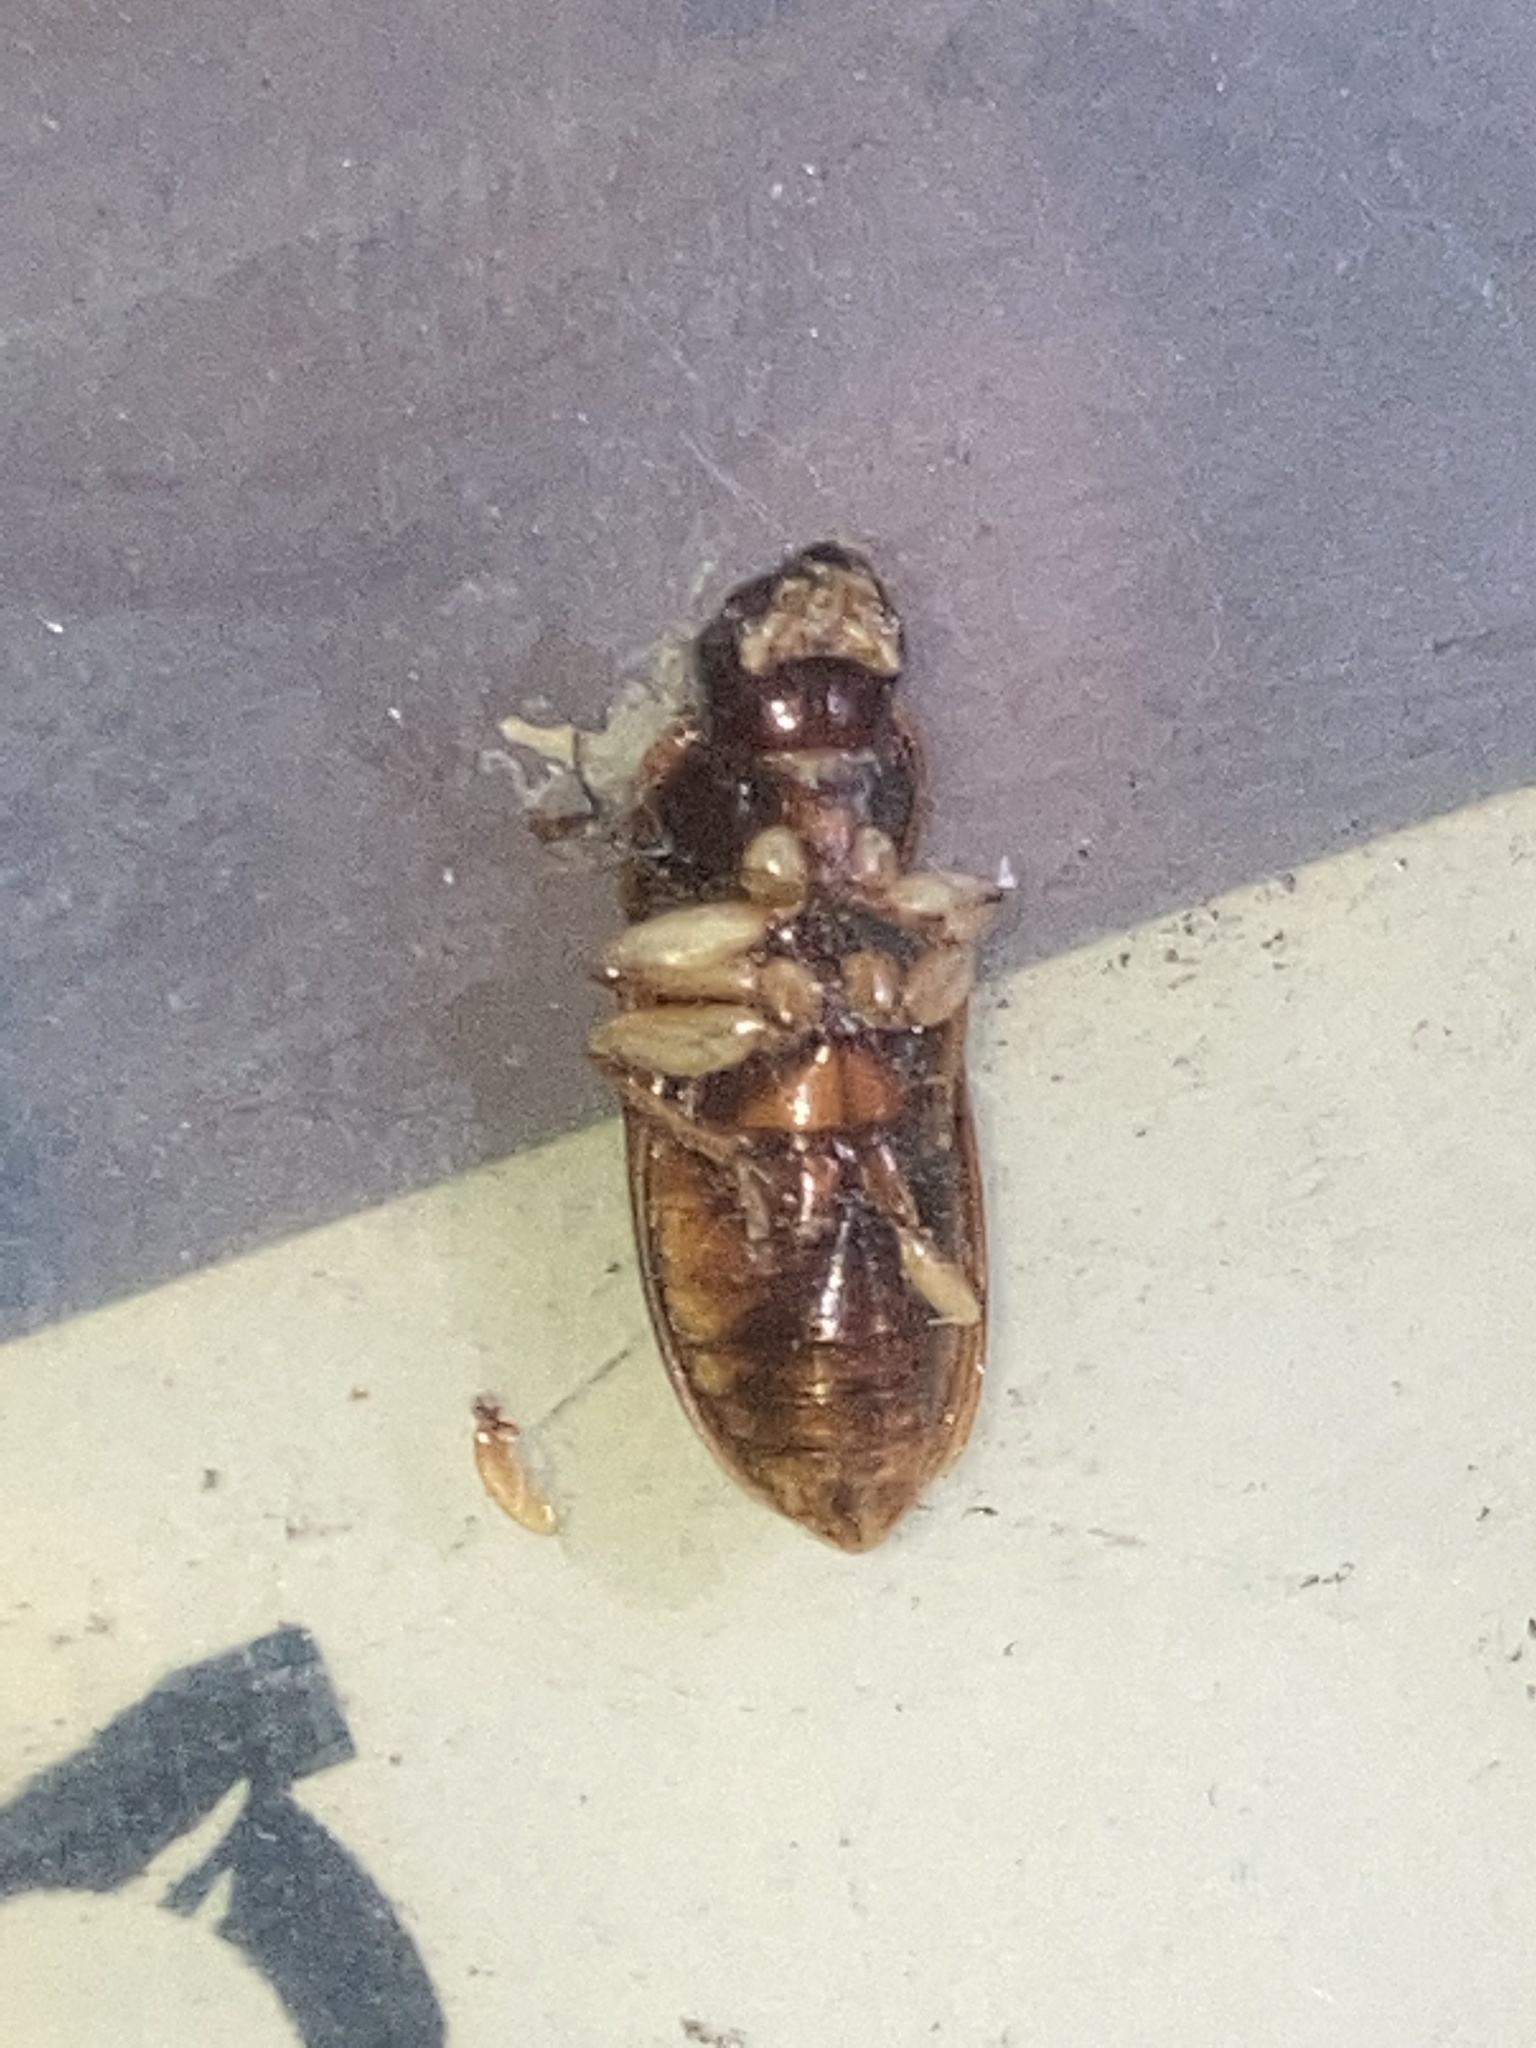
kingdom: Animalia
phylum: Arthropoda
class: Insecta
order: Coleoptera
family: Carabidae
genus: Harpalus
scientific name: Harpalus pensylvanicus
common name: Pennsylvania dingy ground beetle
